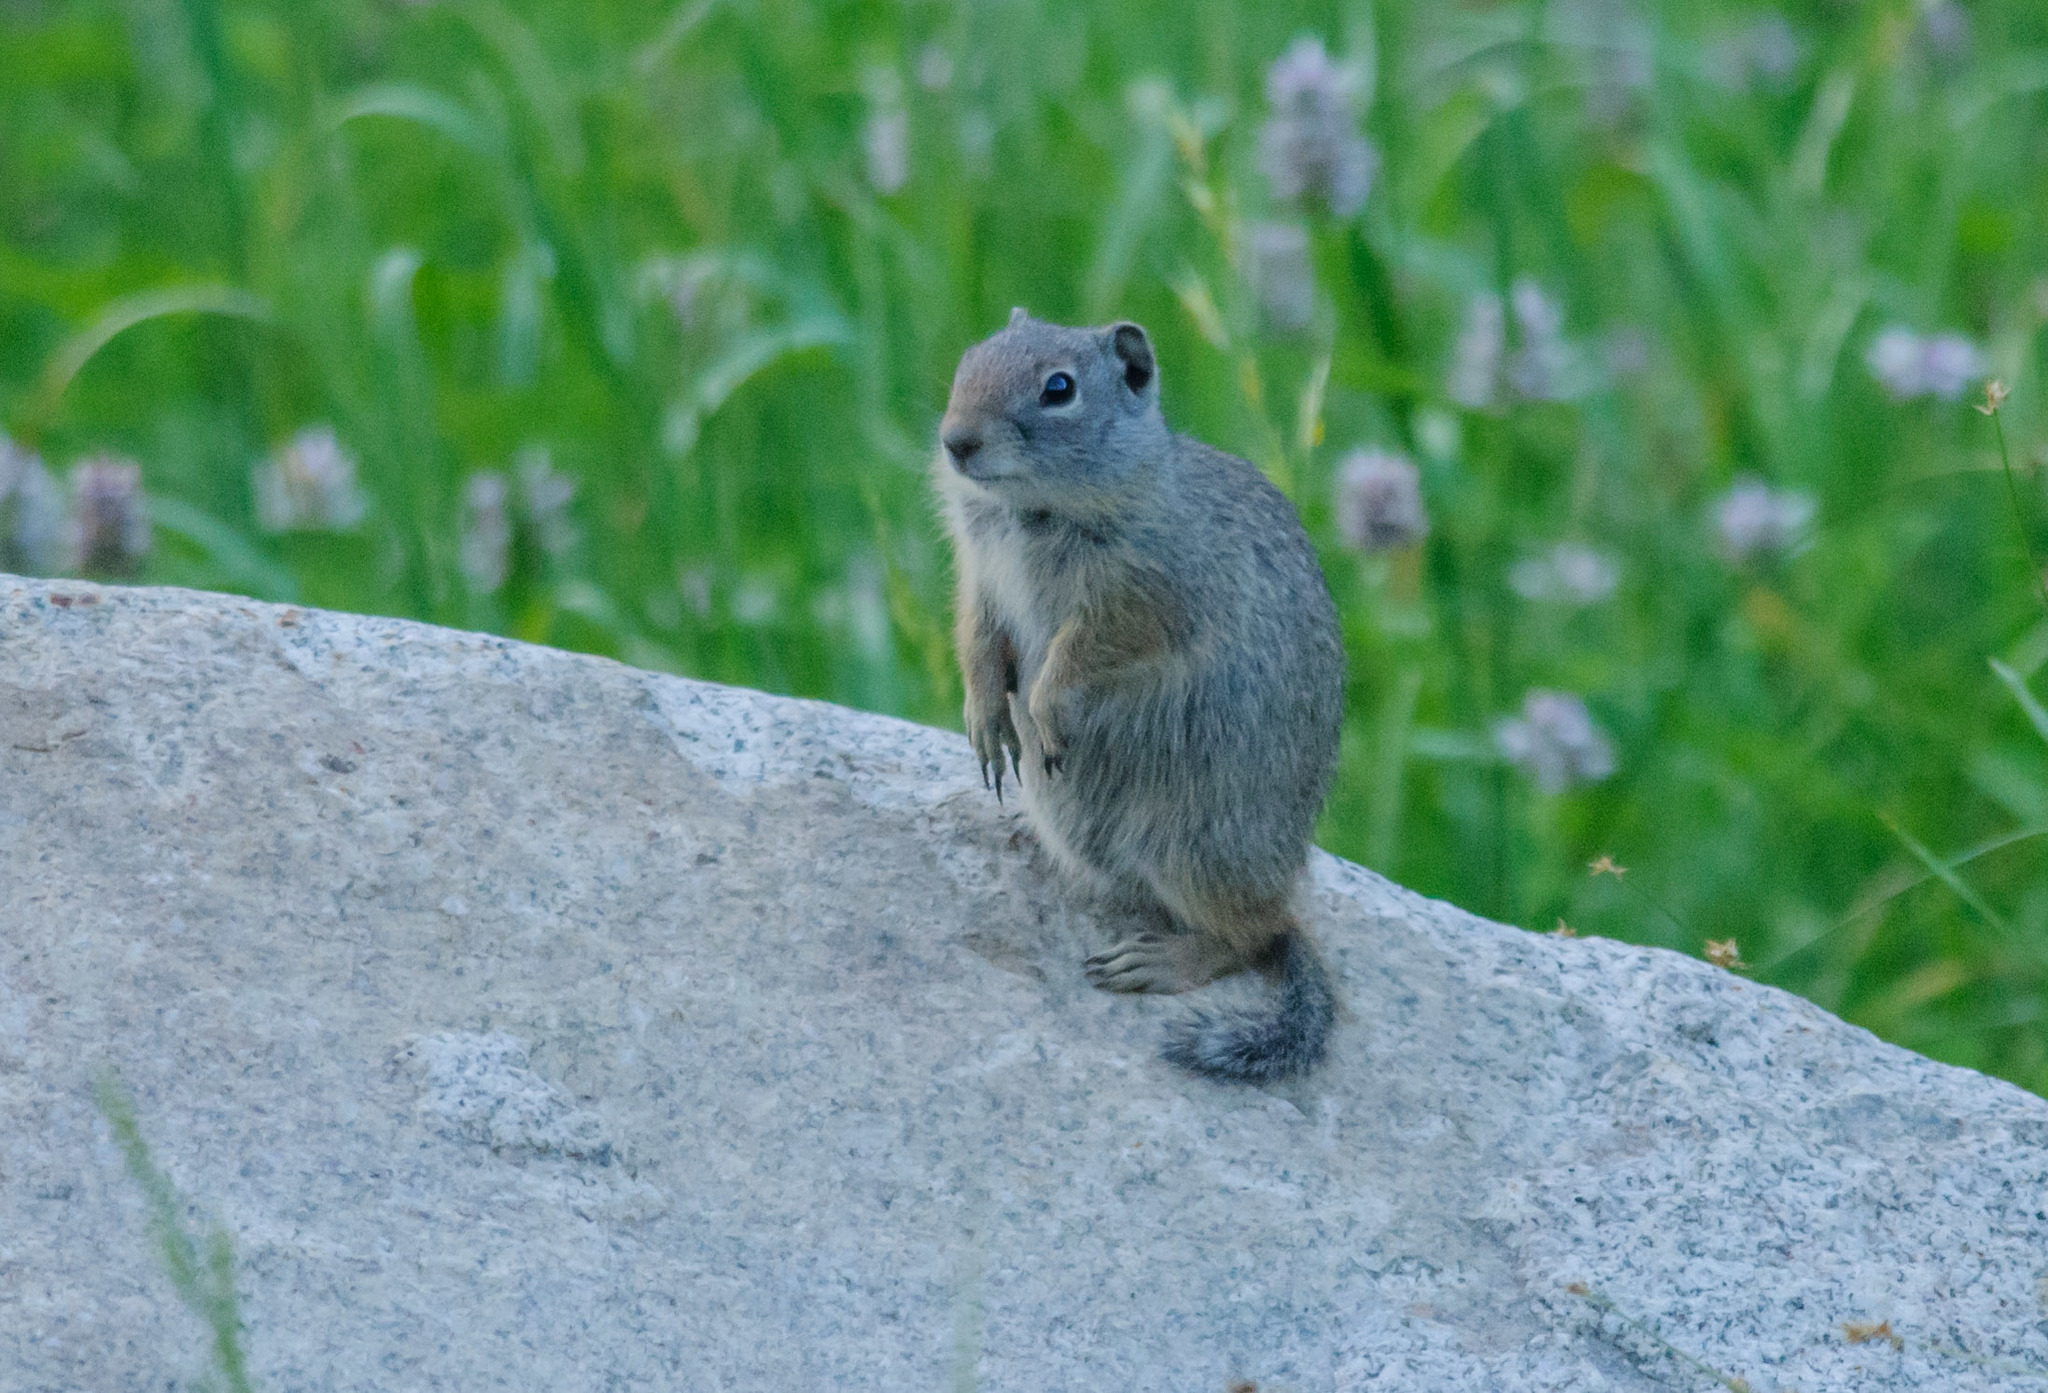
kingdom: Animalia
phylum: Chordata
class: Mammalia
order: Rodentia
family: Sciuridae
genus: Urocitellus
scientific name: Urocitellus armatus
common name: Uinta ground squirrel
